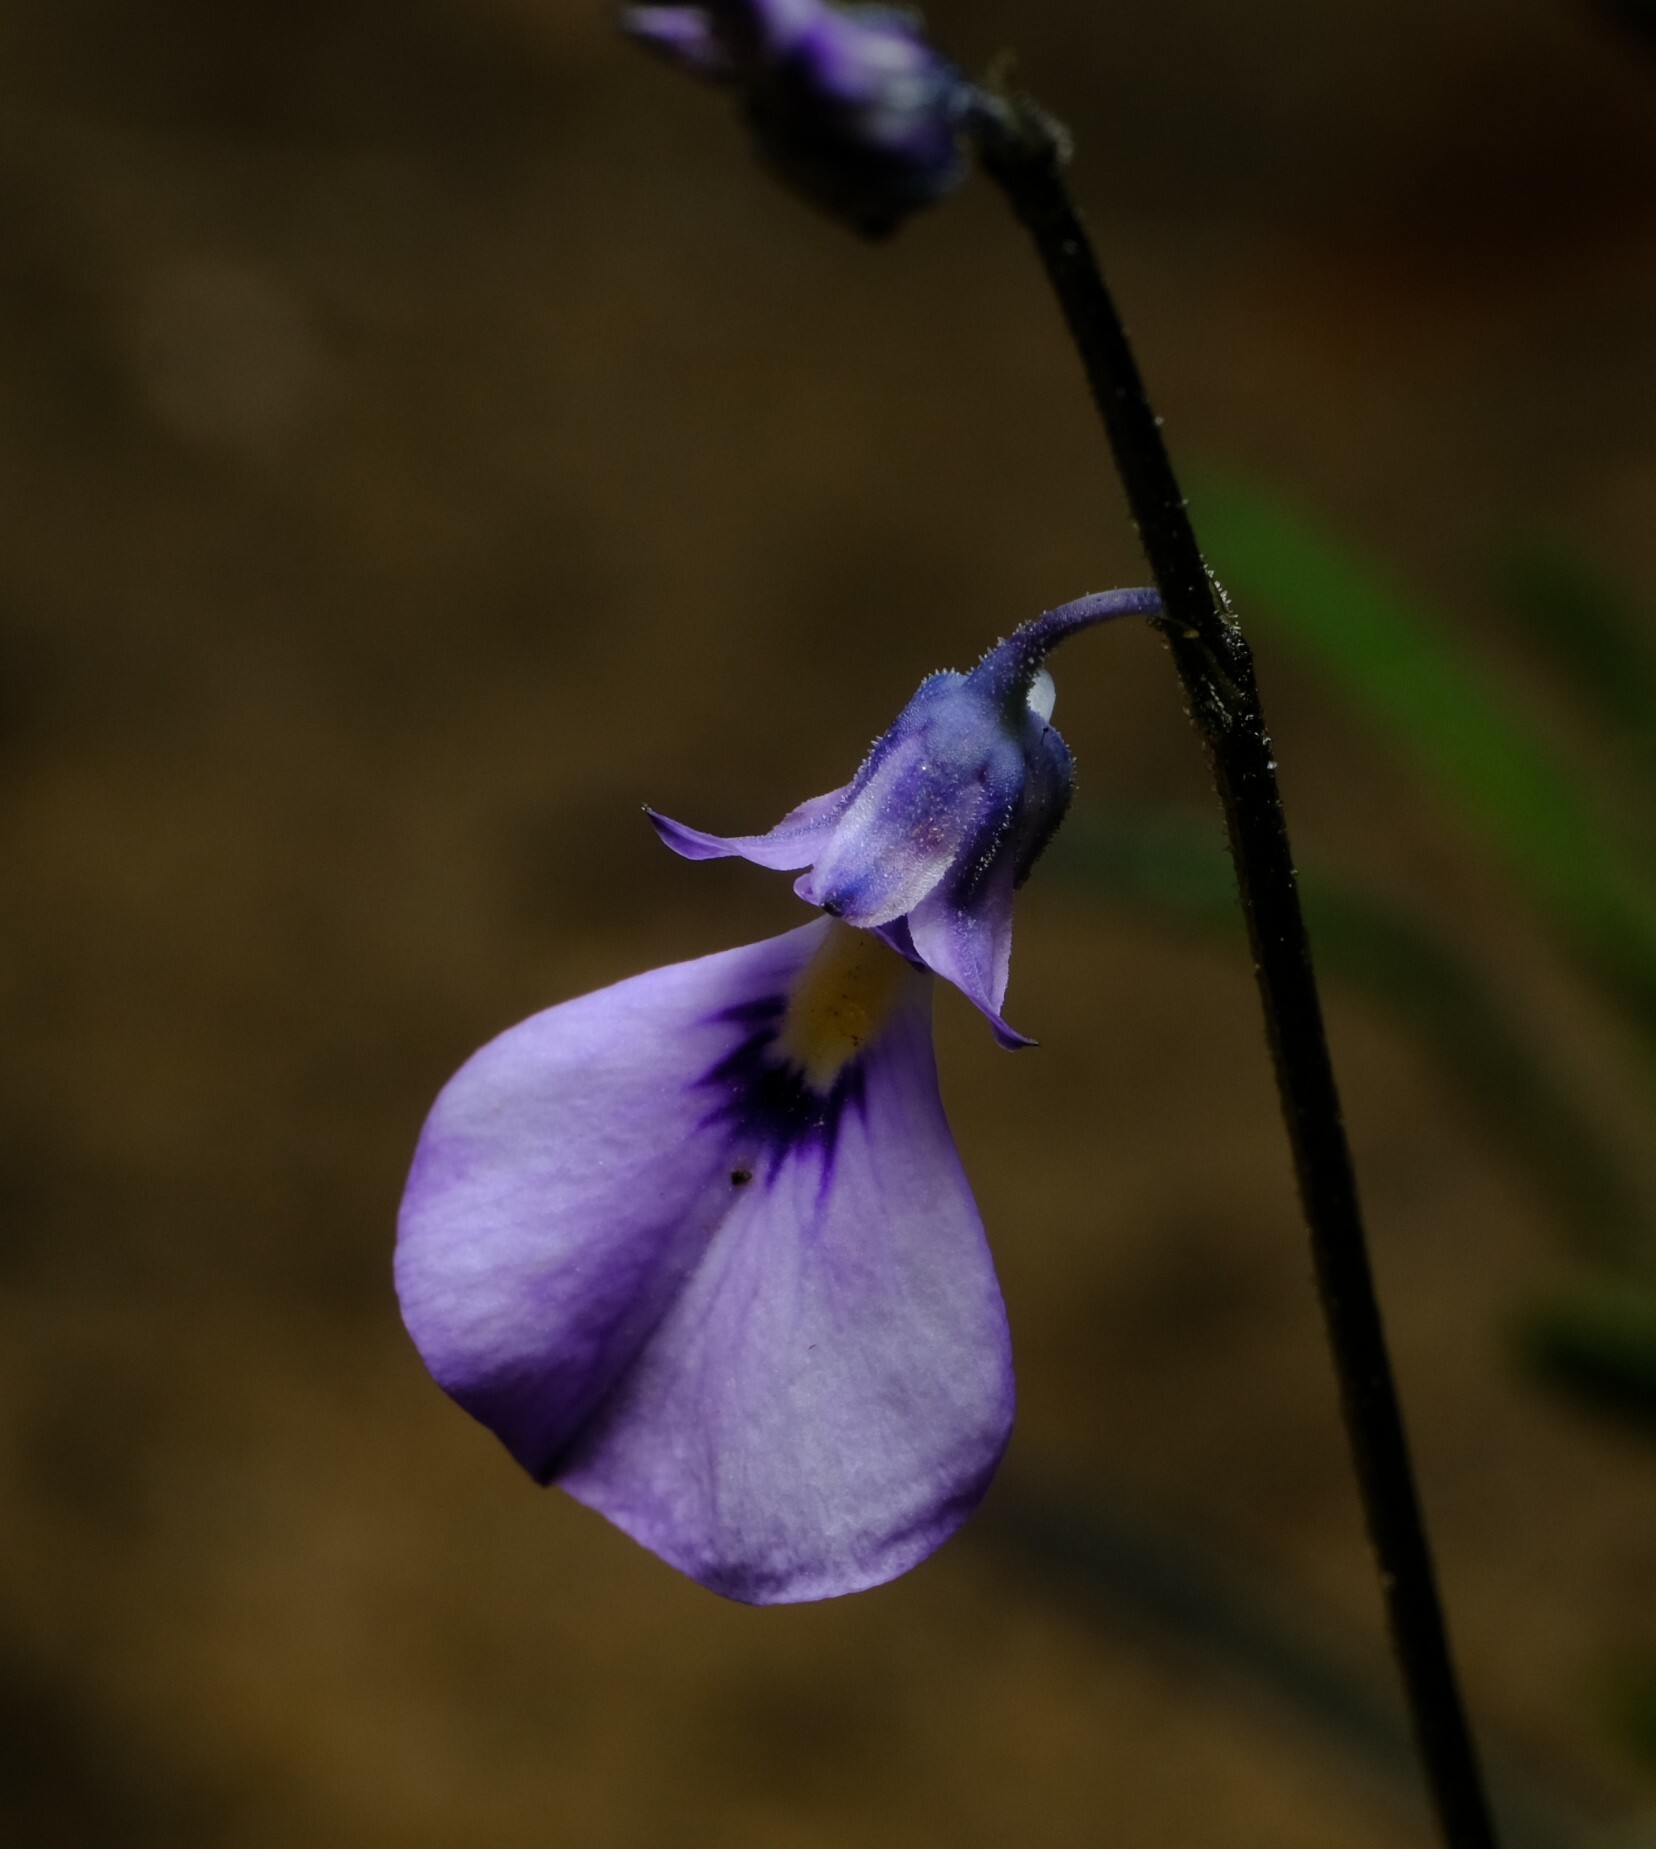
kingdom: Plantae
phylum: Tracheophyta
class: Magnoliopsida
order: Malpighiales
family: Violaceae
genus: Pigea
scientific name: Pigea calycina
